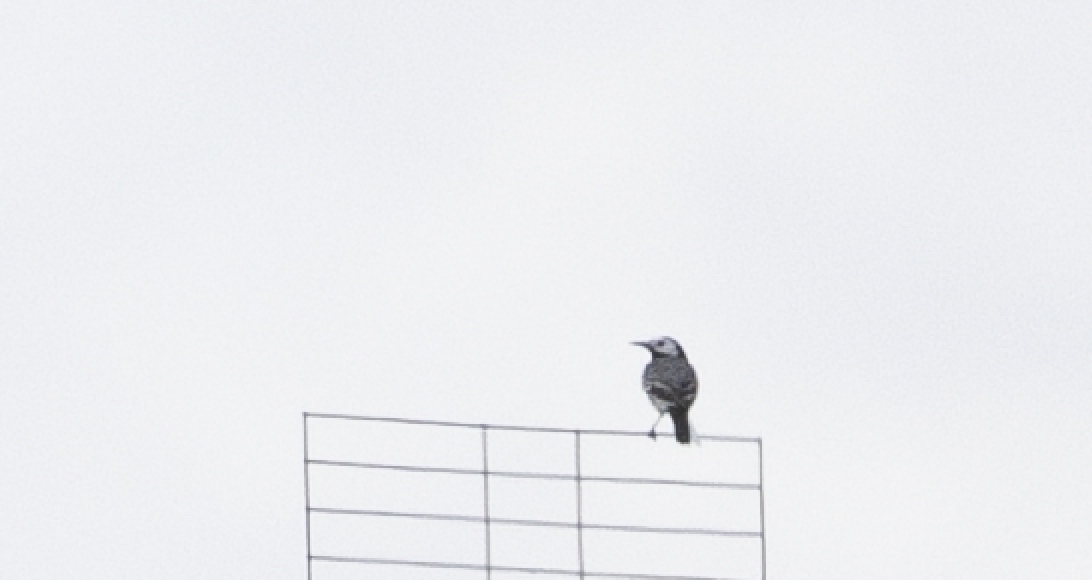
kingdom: Animalia
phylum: Chordata
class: Aves
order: Passeriformes
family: Motacillidae
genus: Motacilla
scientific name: Motacilla alba
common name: White wagtail
